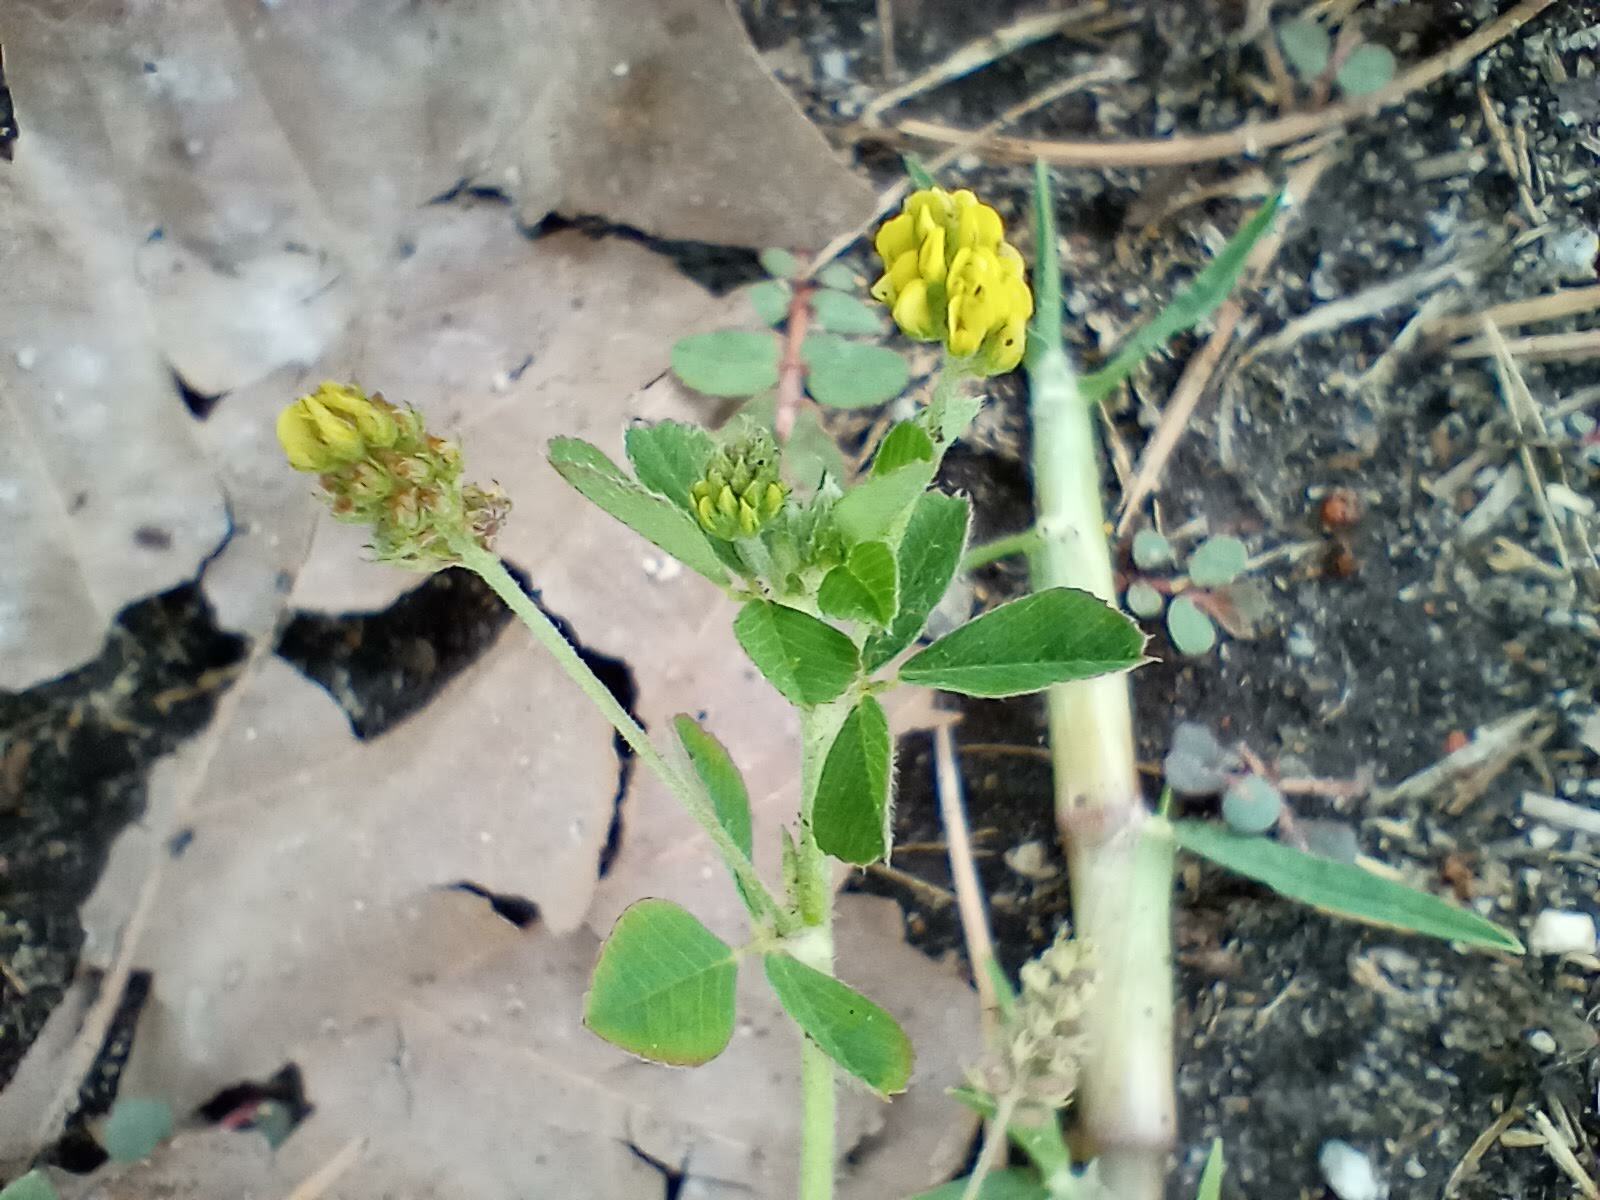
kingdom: Plantae
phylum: Tracheophyta
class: Magnoliopsida
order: Fabales
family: Fabaceae
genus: Medicago
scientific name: Medicago lupulina
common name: Black medick
